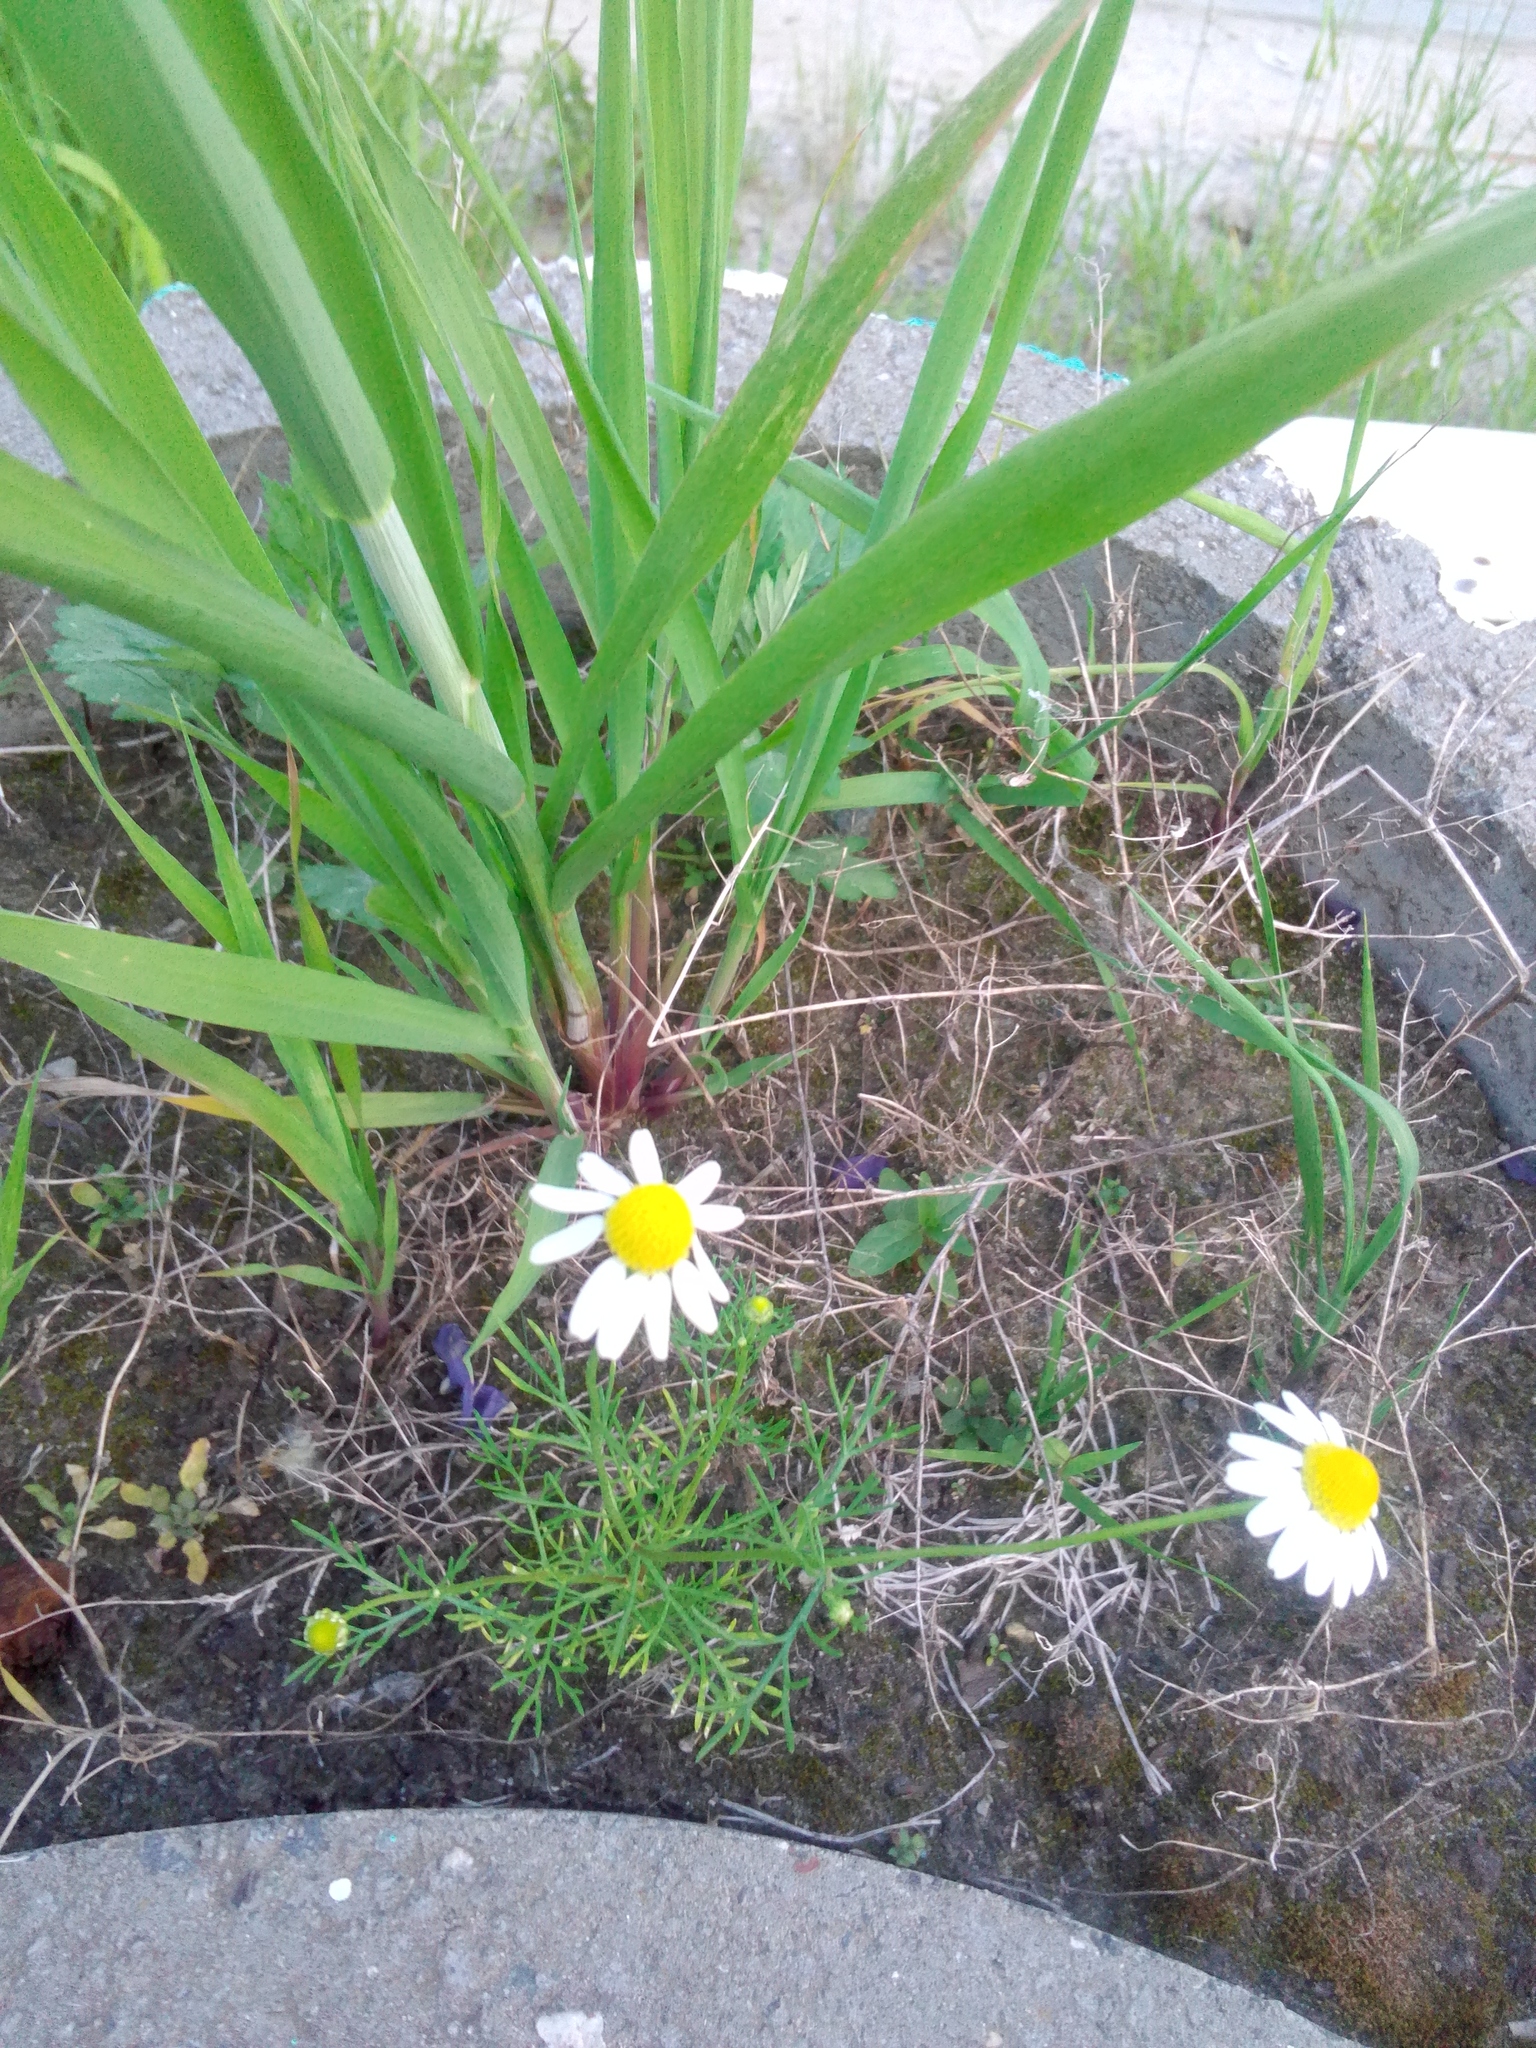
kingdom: Plantae
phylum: Tracheophyta
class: Magnoliopsida
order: Asterales
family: Asteraceae
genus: Tripleurospermum
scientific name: Tripleurospermum inodorum
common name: Scentless mayweed
